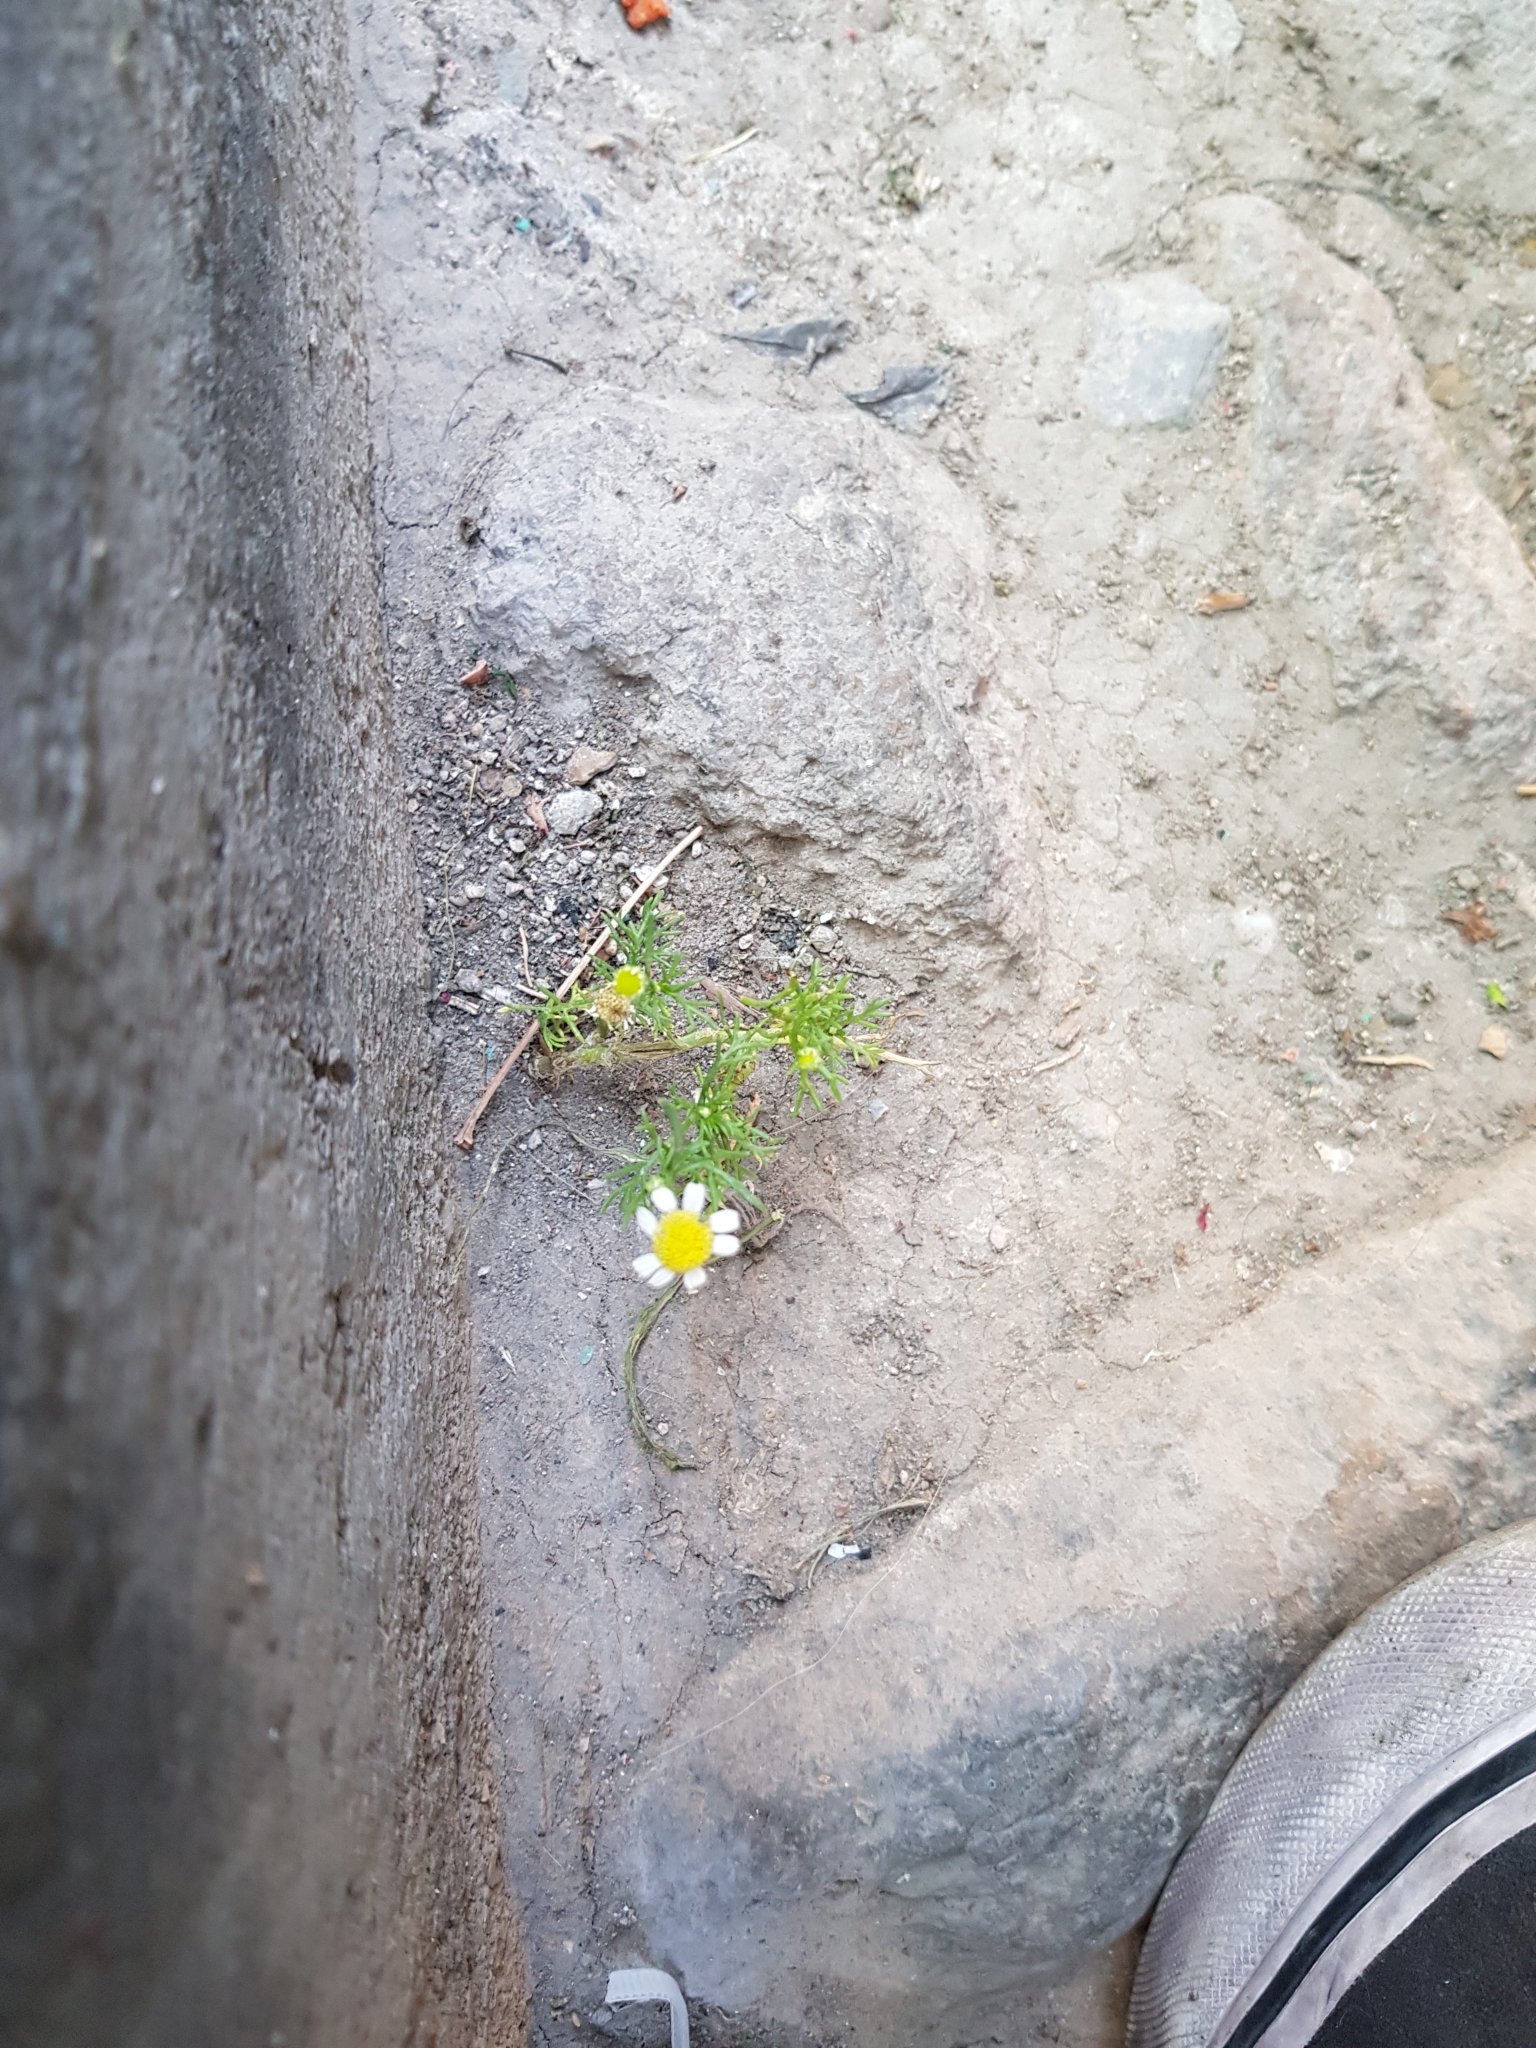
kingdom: Plantae
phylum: Tracheophyta
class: Magnoliopsida
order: Asterales
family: Asteraceae
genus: Matricaria
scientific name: Matricaria chamomilla
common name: Scented mayweed
